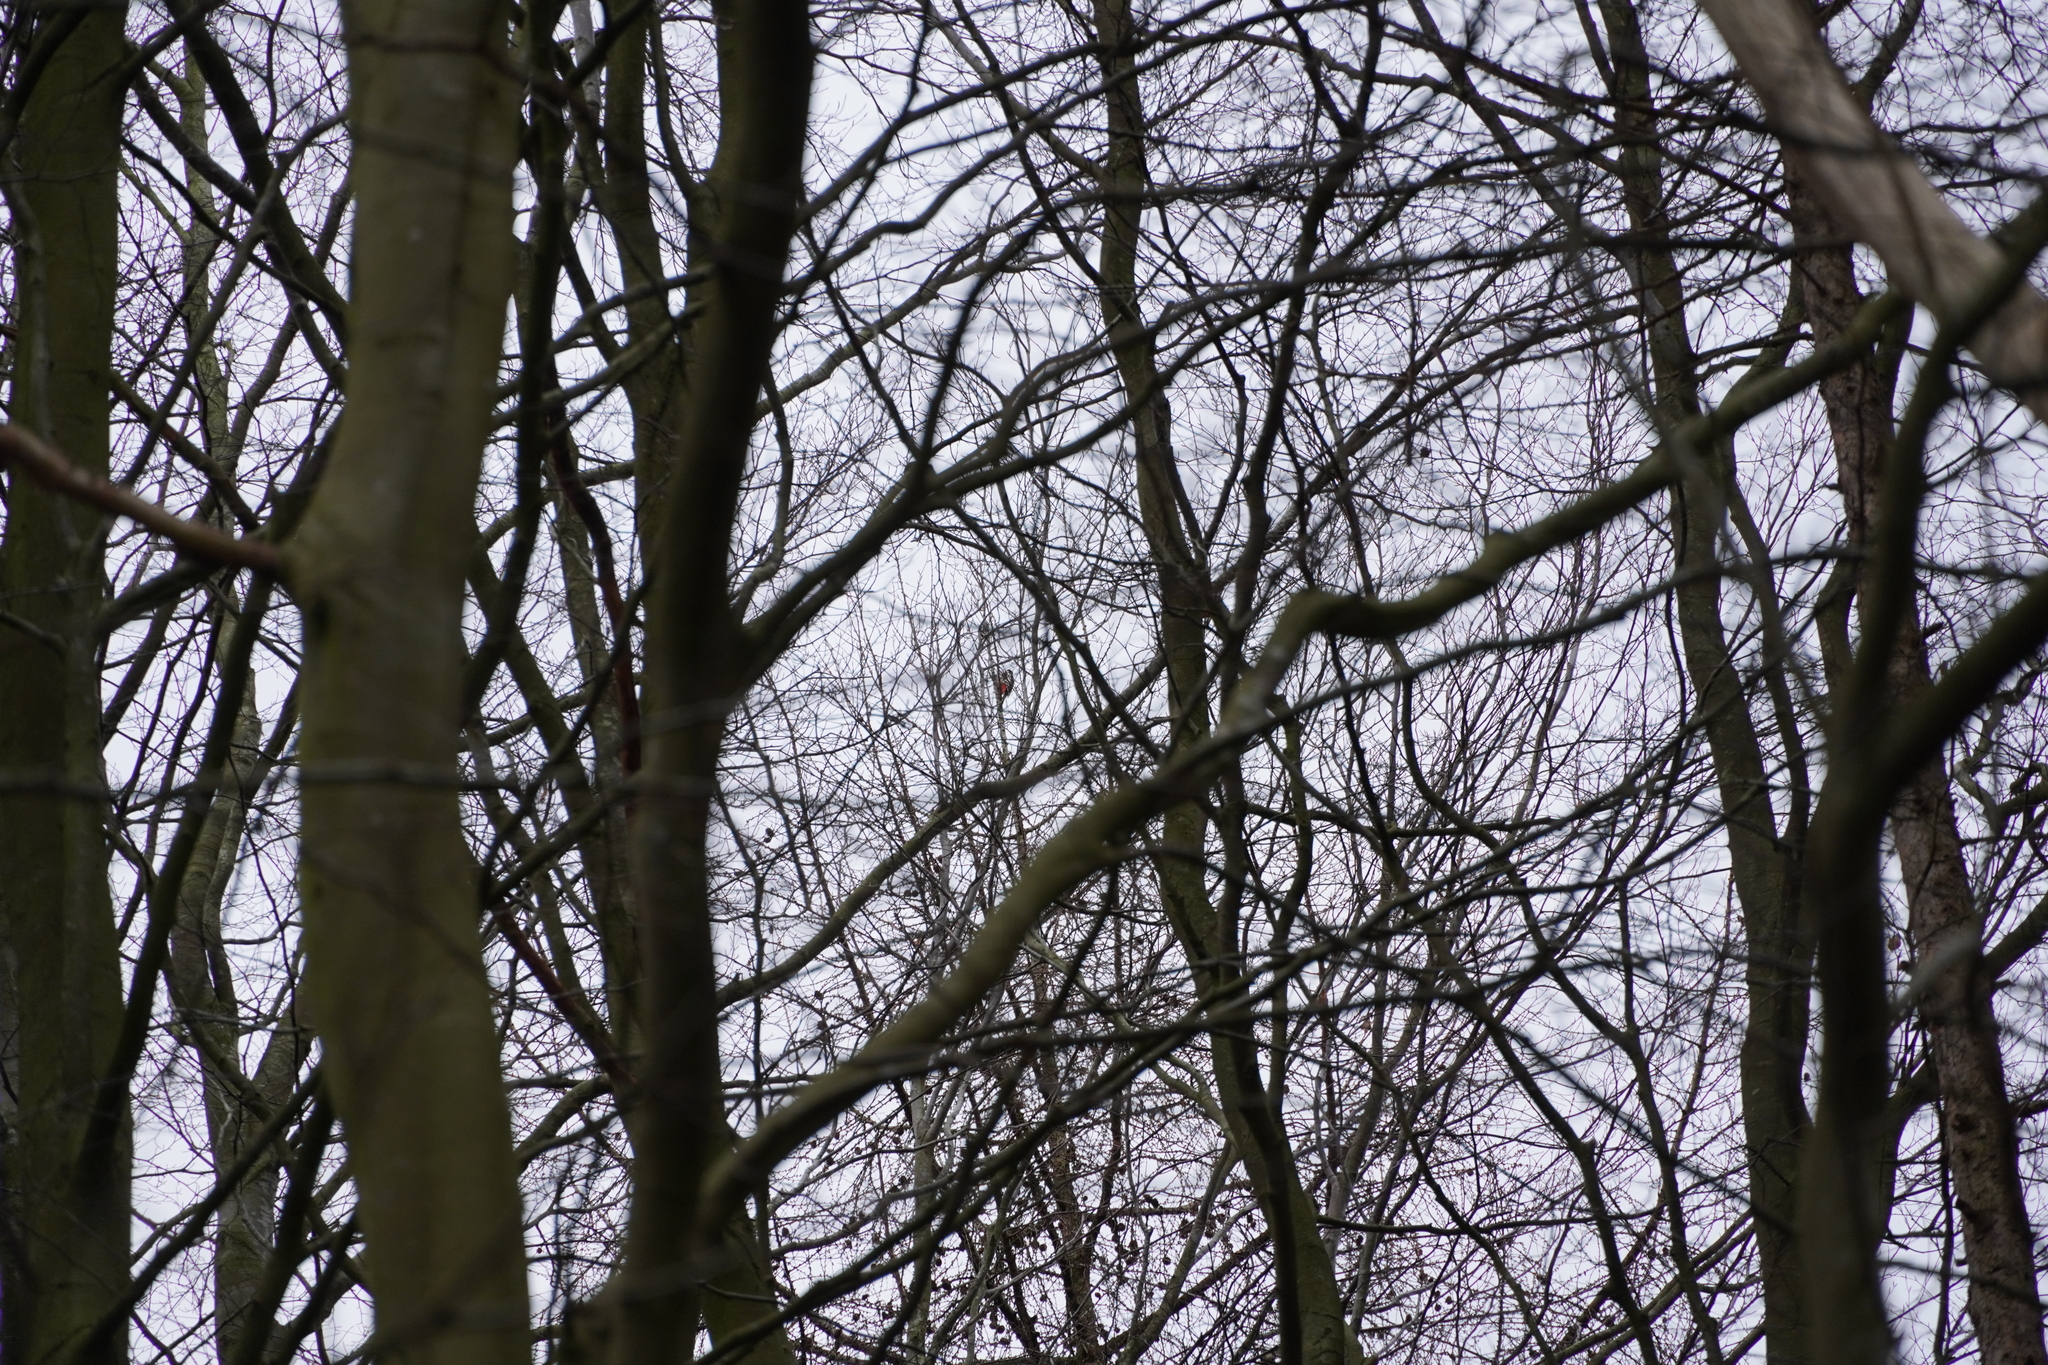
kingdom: Animalia
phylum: Chordata
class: Aves
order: Piciformes
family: Picidae
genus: Dendrocopos
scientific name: Dendrocopos major
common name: Great spotted woodpecker
